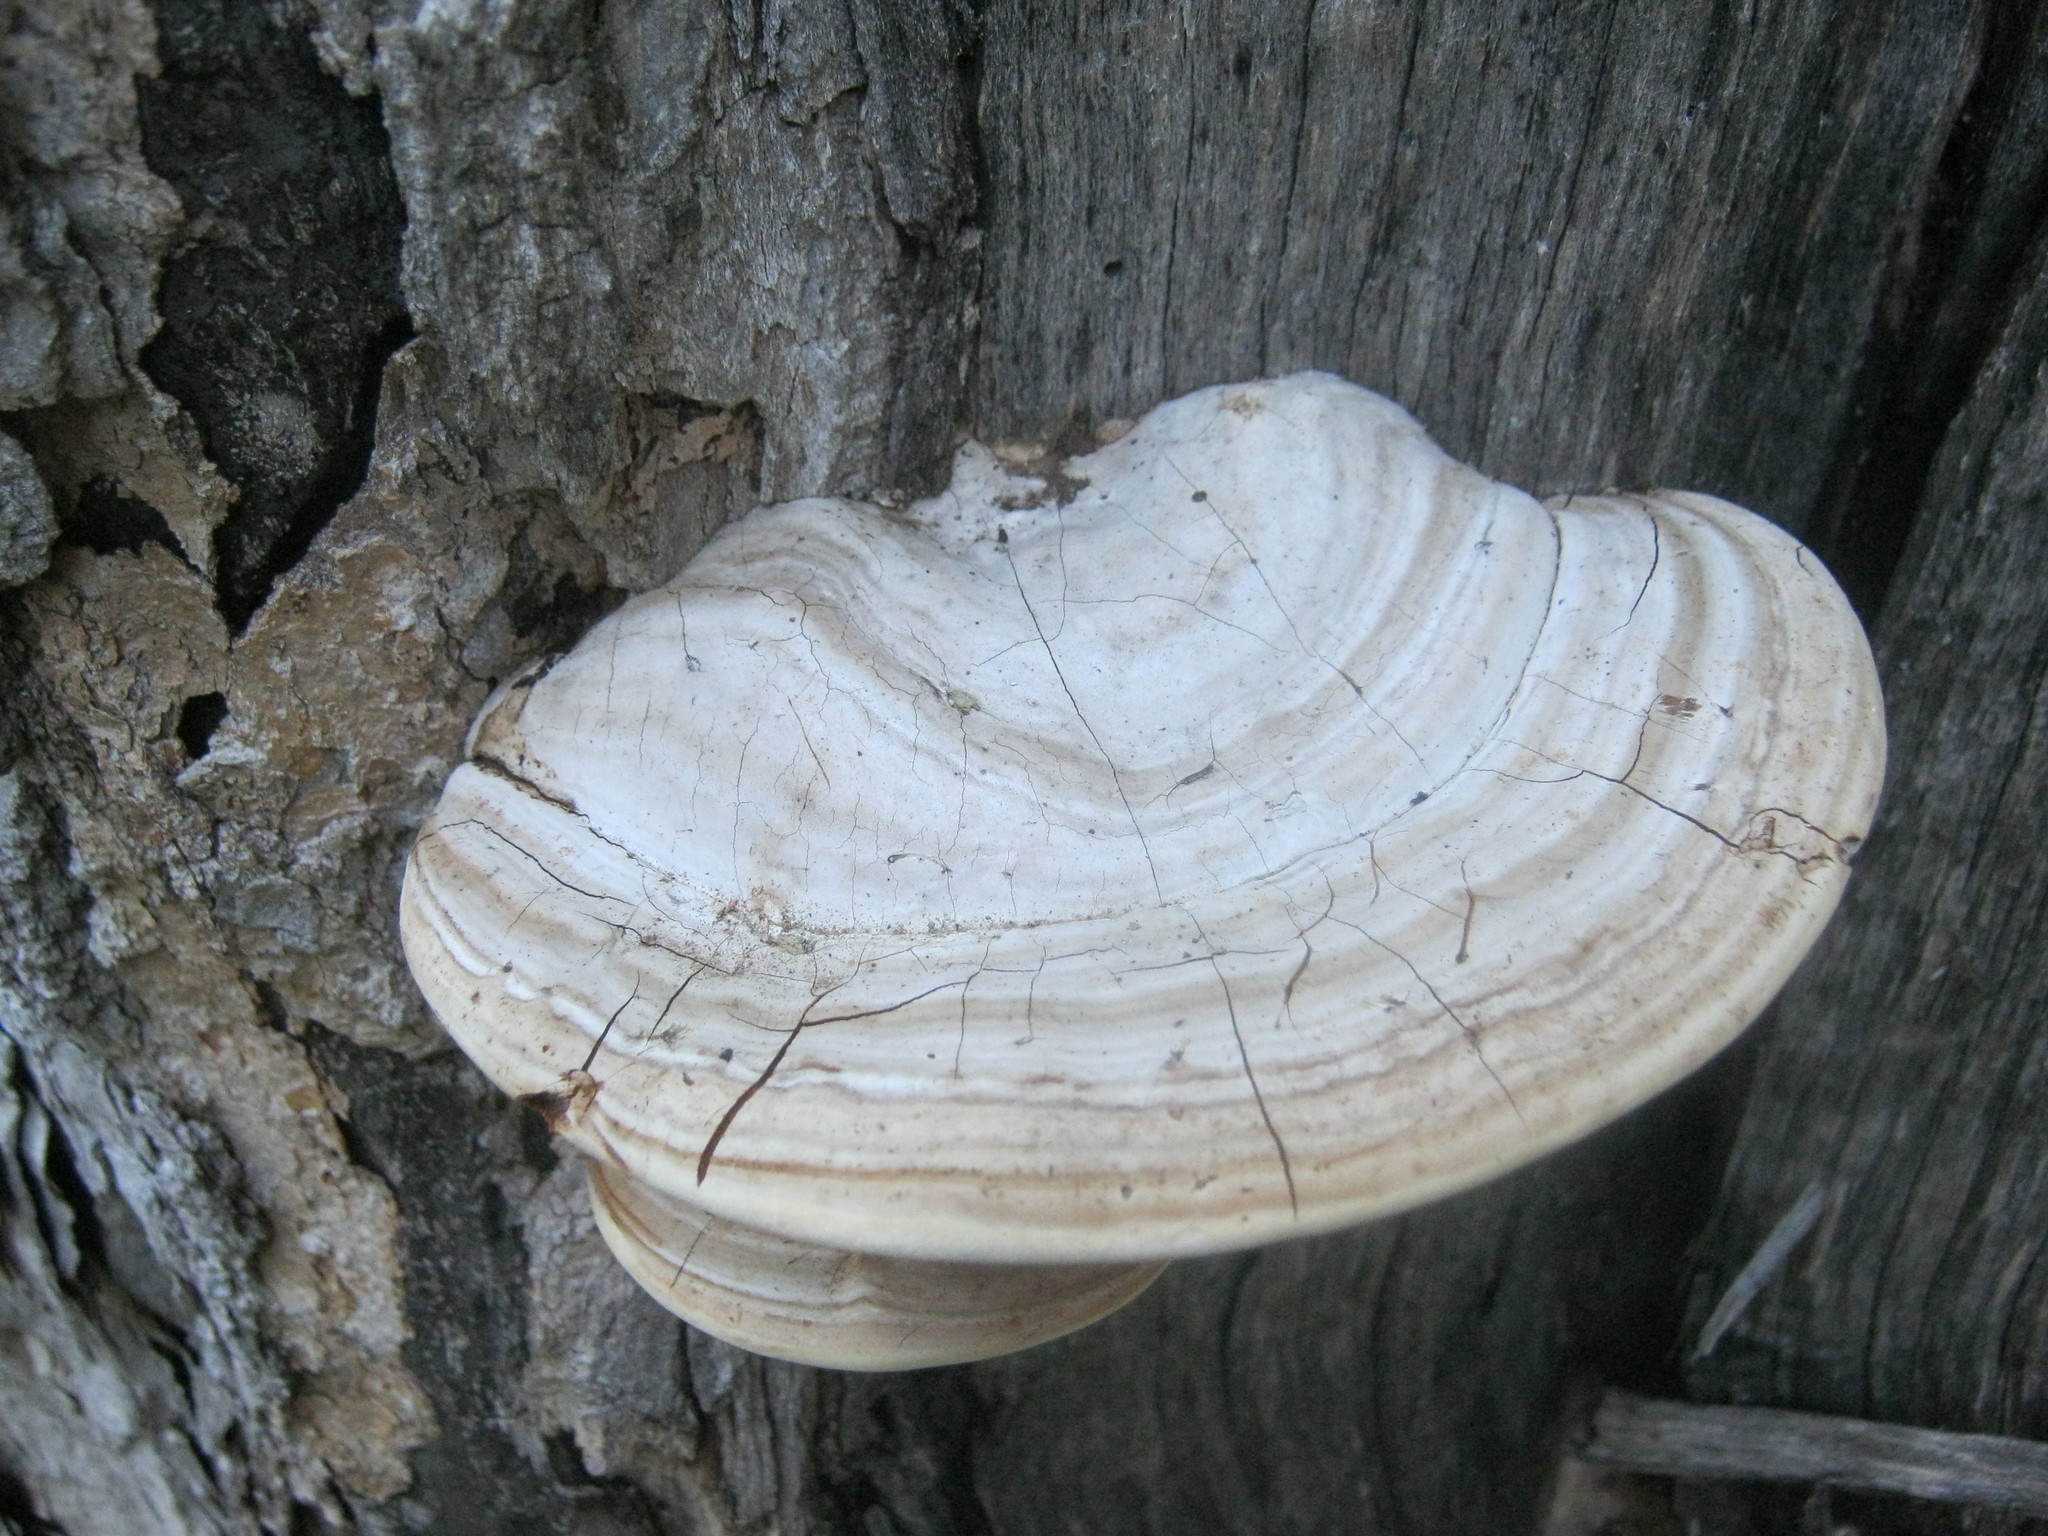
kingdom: Fungi
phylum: Basidiomycota
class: Agaricomycetes
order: Polyporales
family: Polyporaceae
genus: Ganoderma
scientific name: Ganoderma applanatum
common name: Artist's bracket
